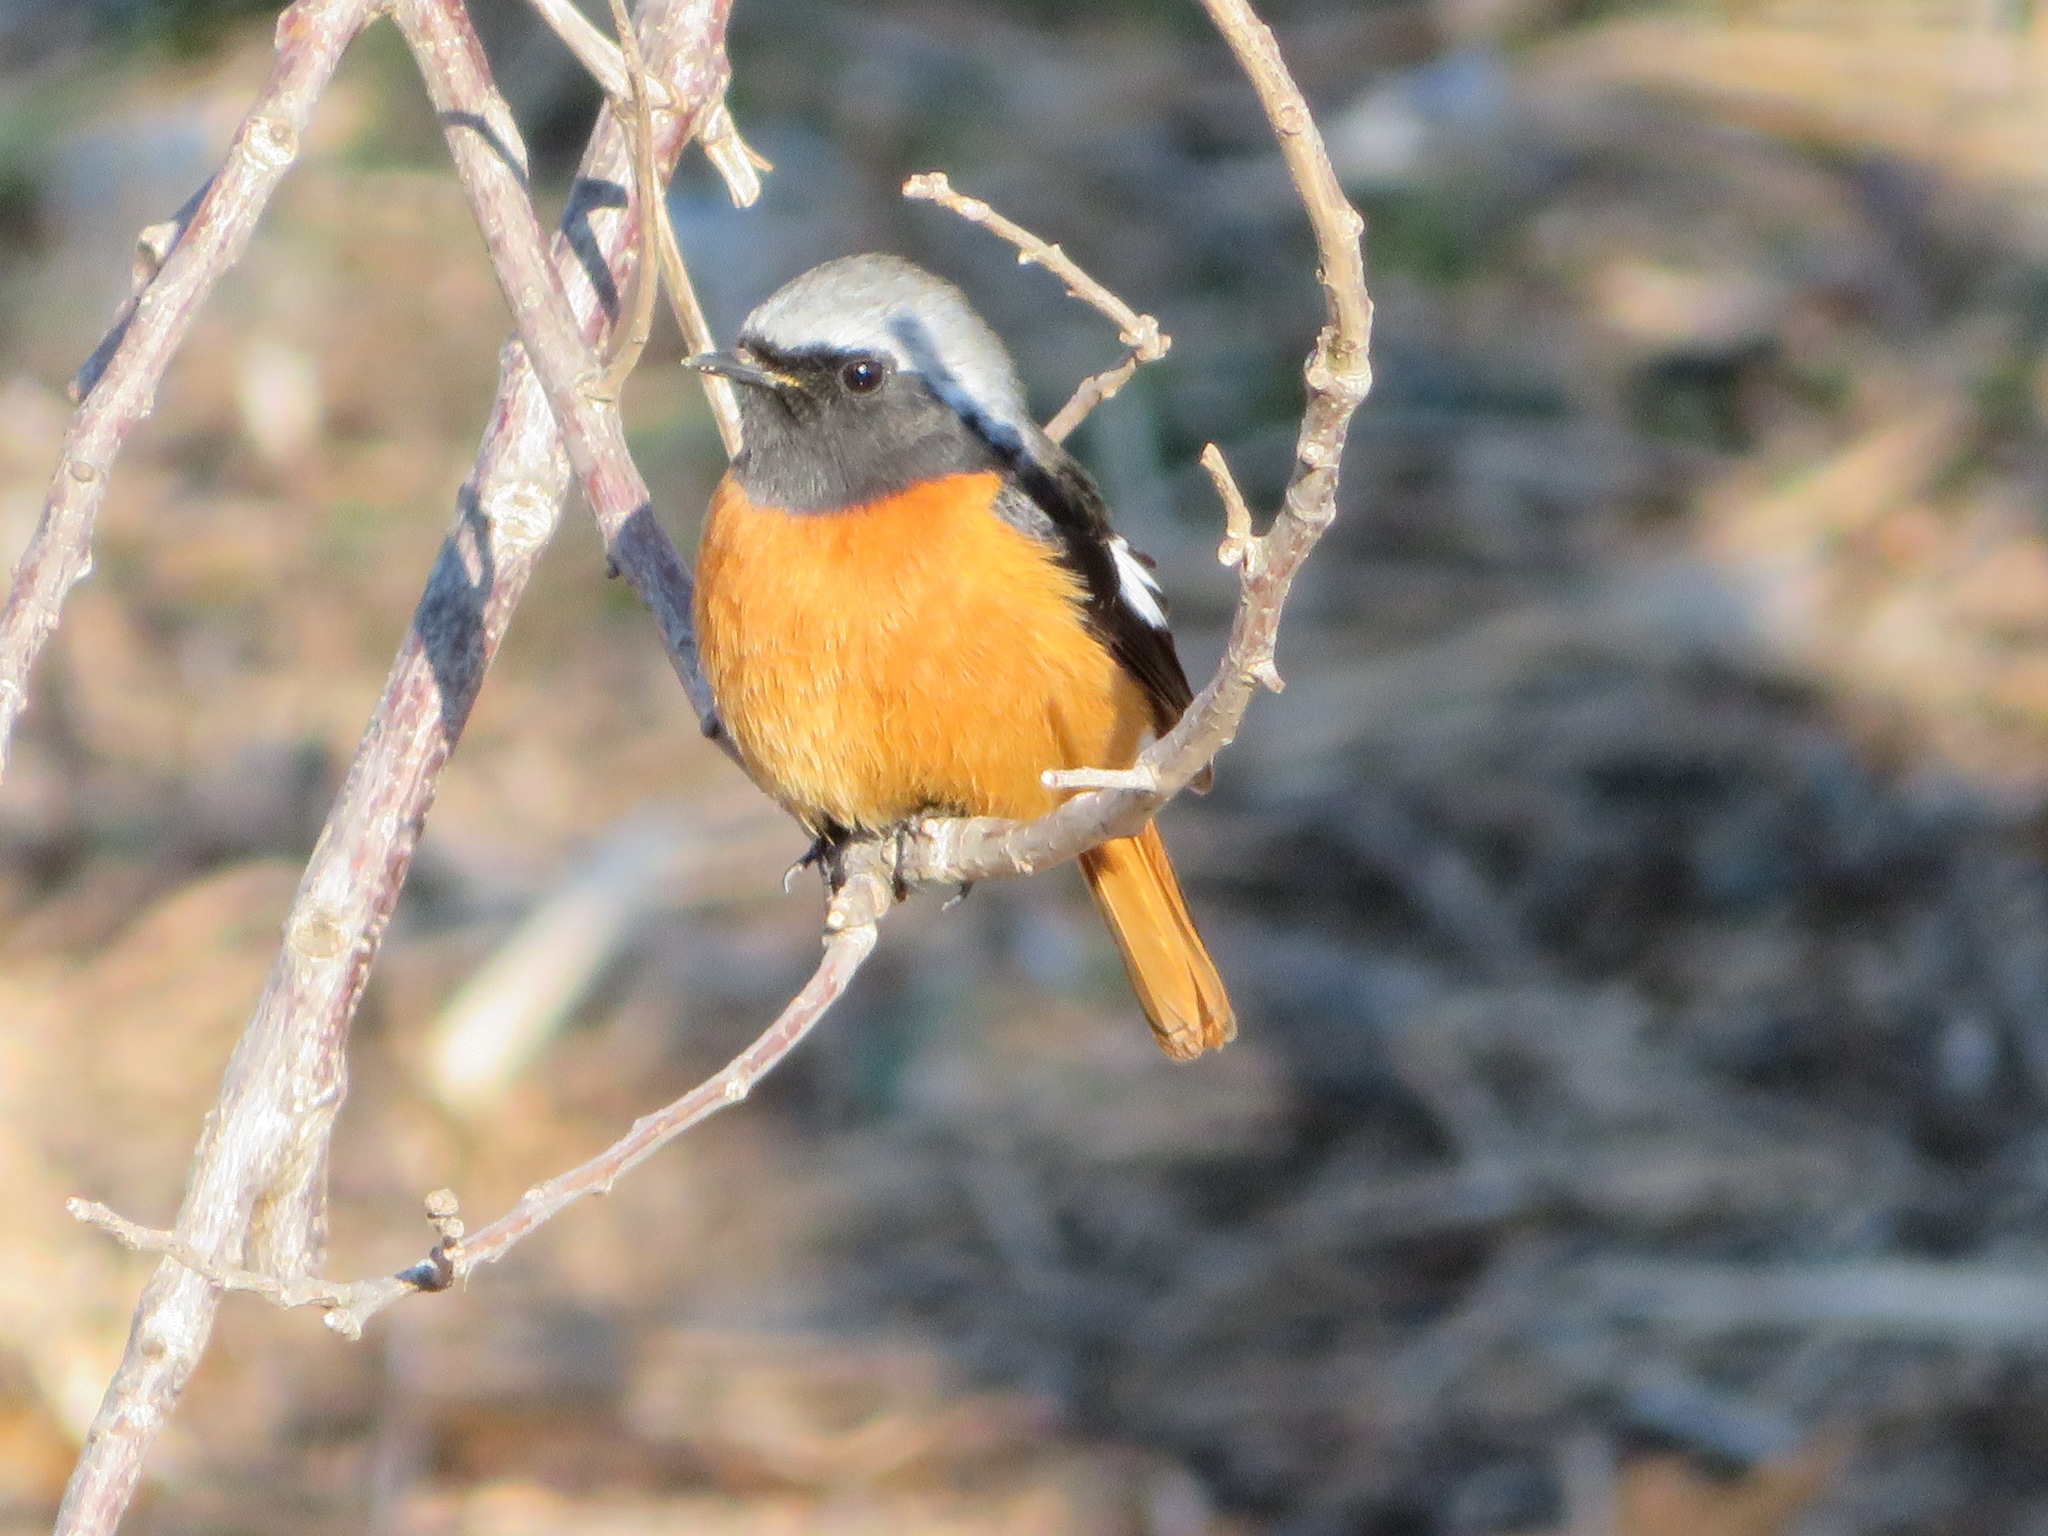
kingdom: Animalia
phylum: Chordata
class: Aves
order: Passeriformes
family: Muscicapidae
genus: Phoenicurus
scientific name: Phoenicurus auroreus
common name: Daurian redstart
